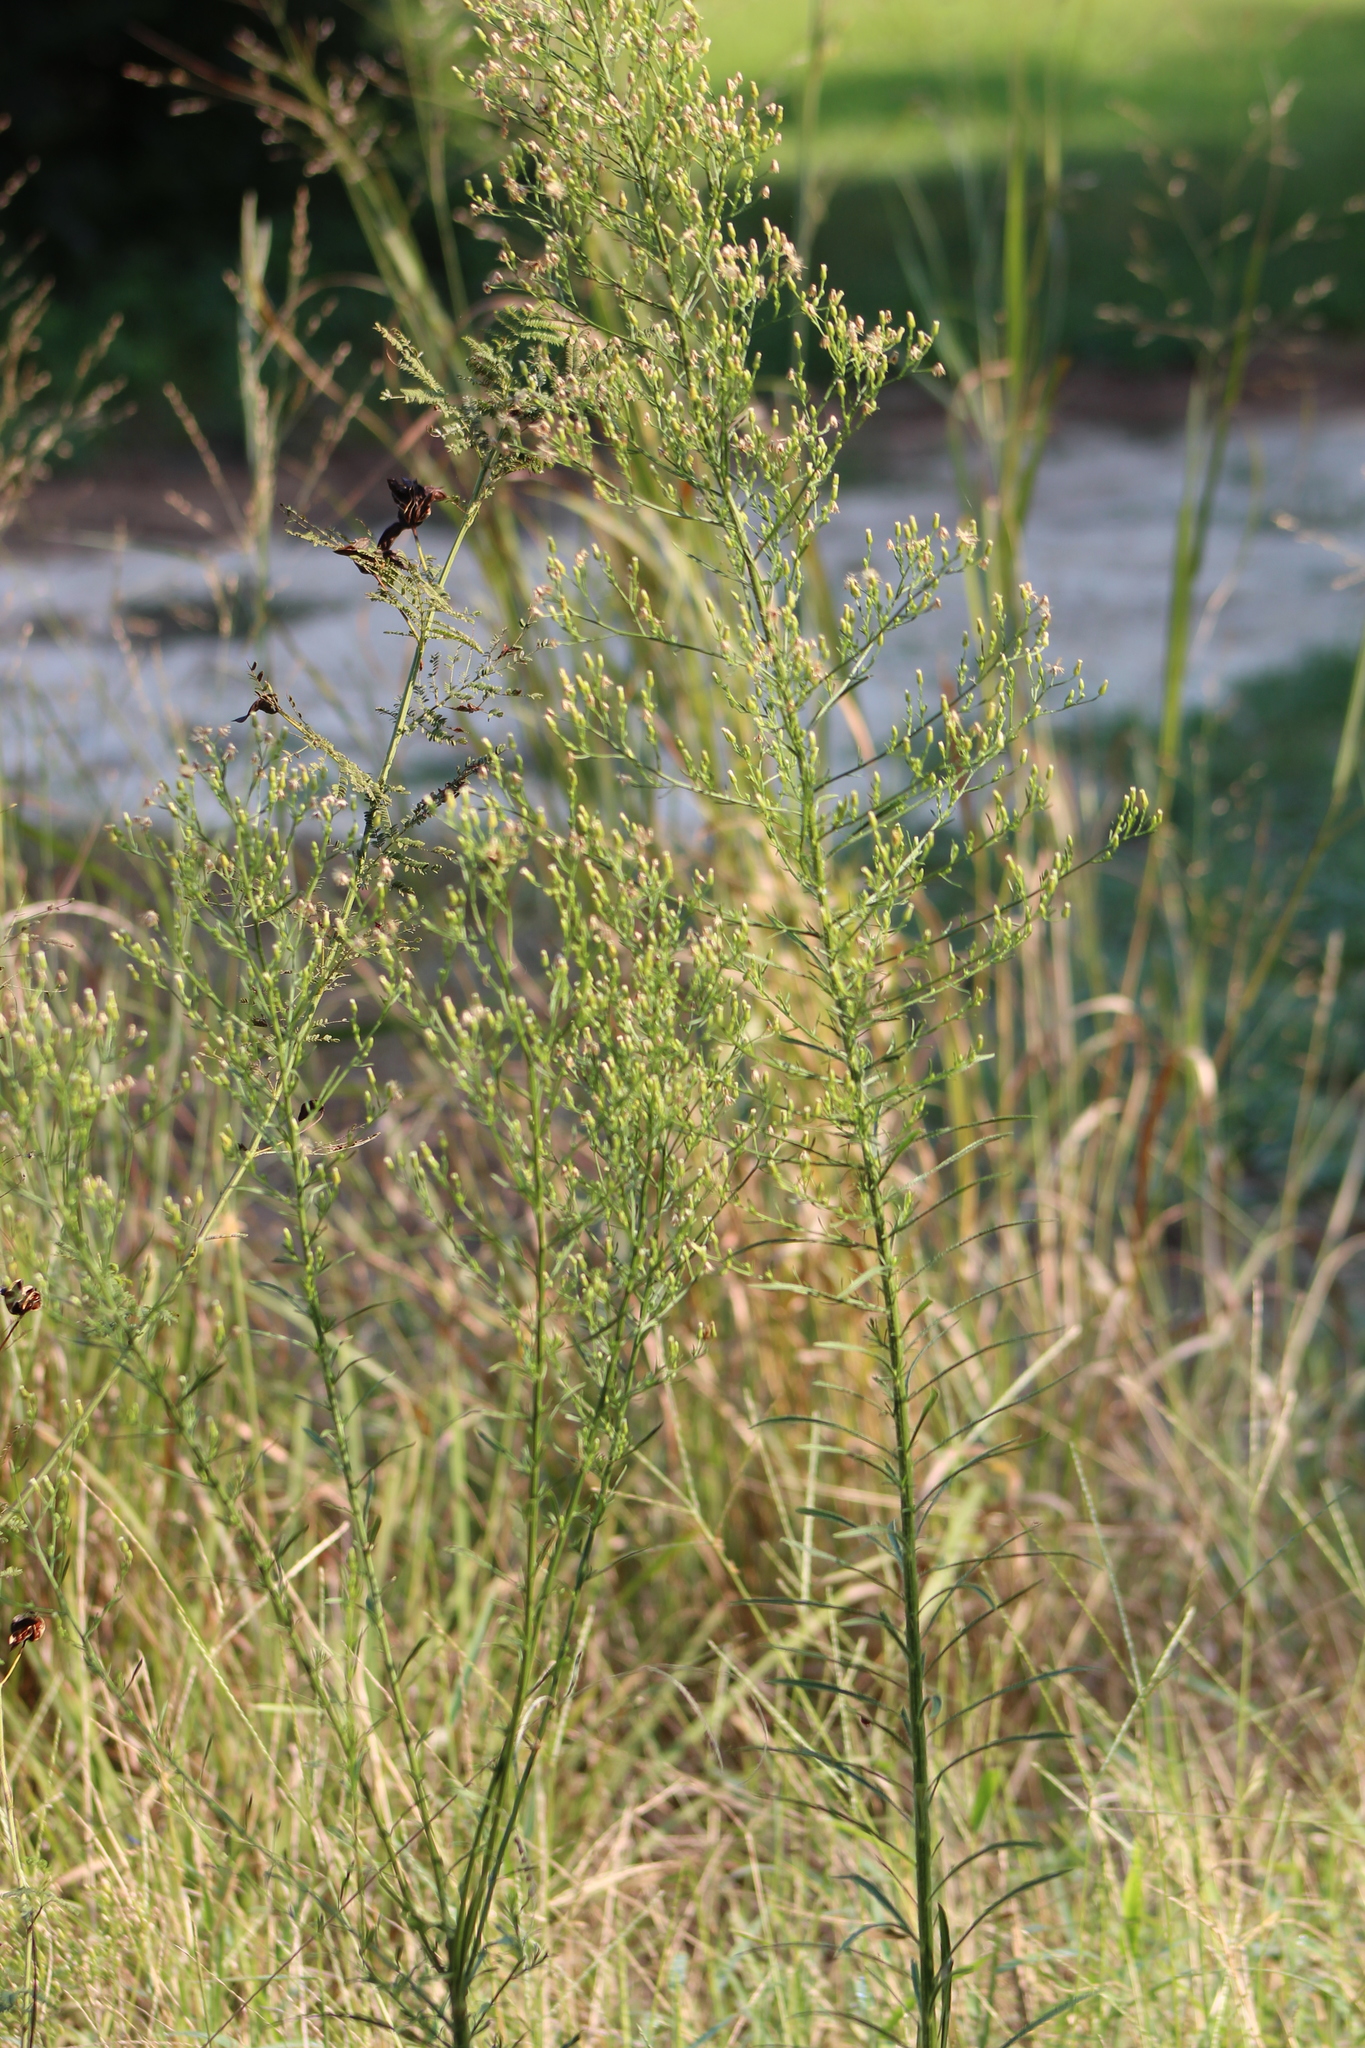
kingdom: Plantae
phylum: Tracheophyta
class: Magnoliopsida
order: Asterales
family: Asteraceae
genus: Erigeron
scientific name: Erigeron canadensis
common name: Canadian fleabane
